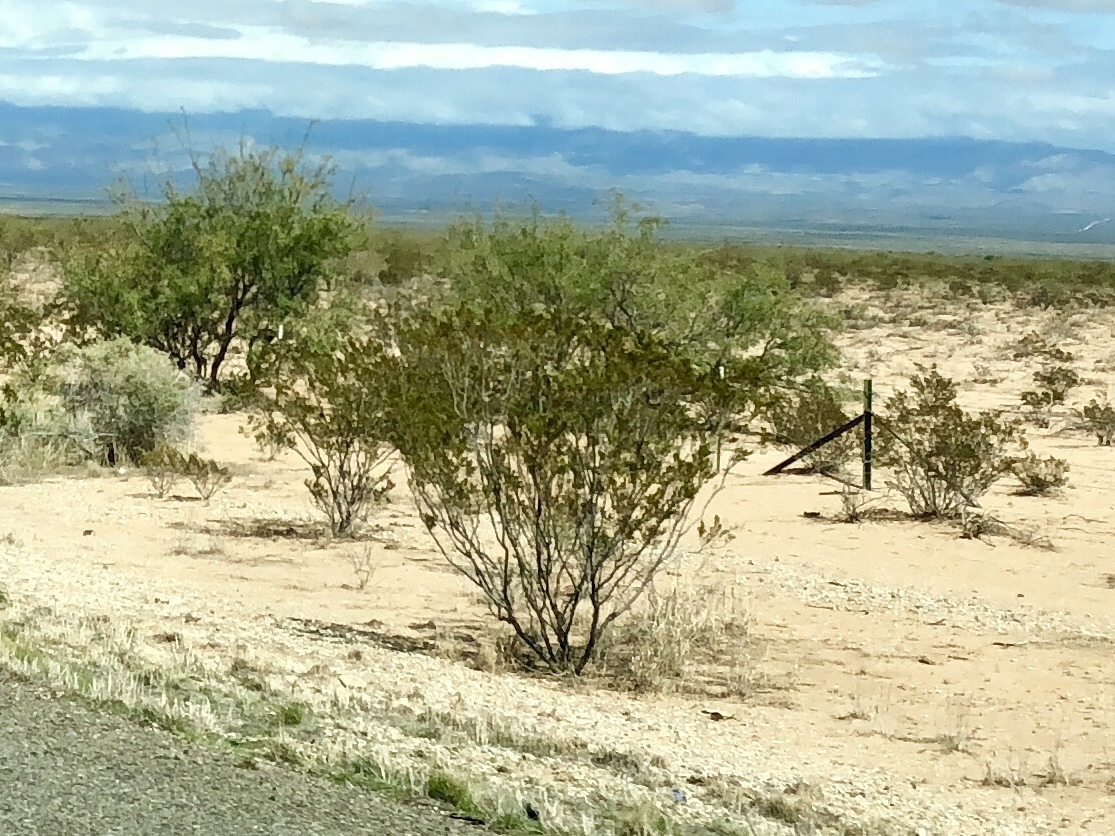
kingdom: Plantae
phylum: Tracheophyta
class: Magnoliopsida
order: Zygophyllales
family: Zygophyllaceae
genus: Larrea
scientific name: Larrea tridentata
